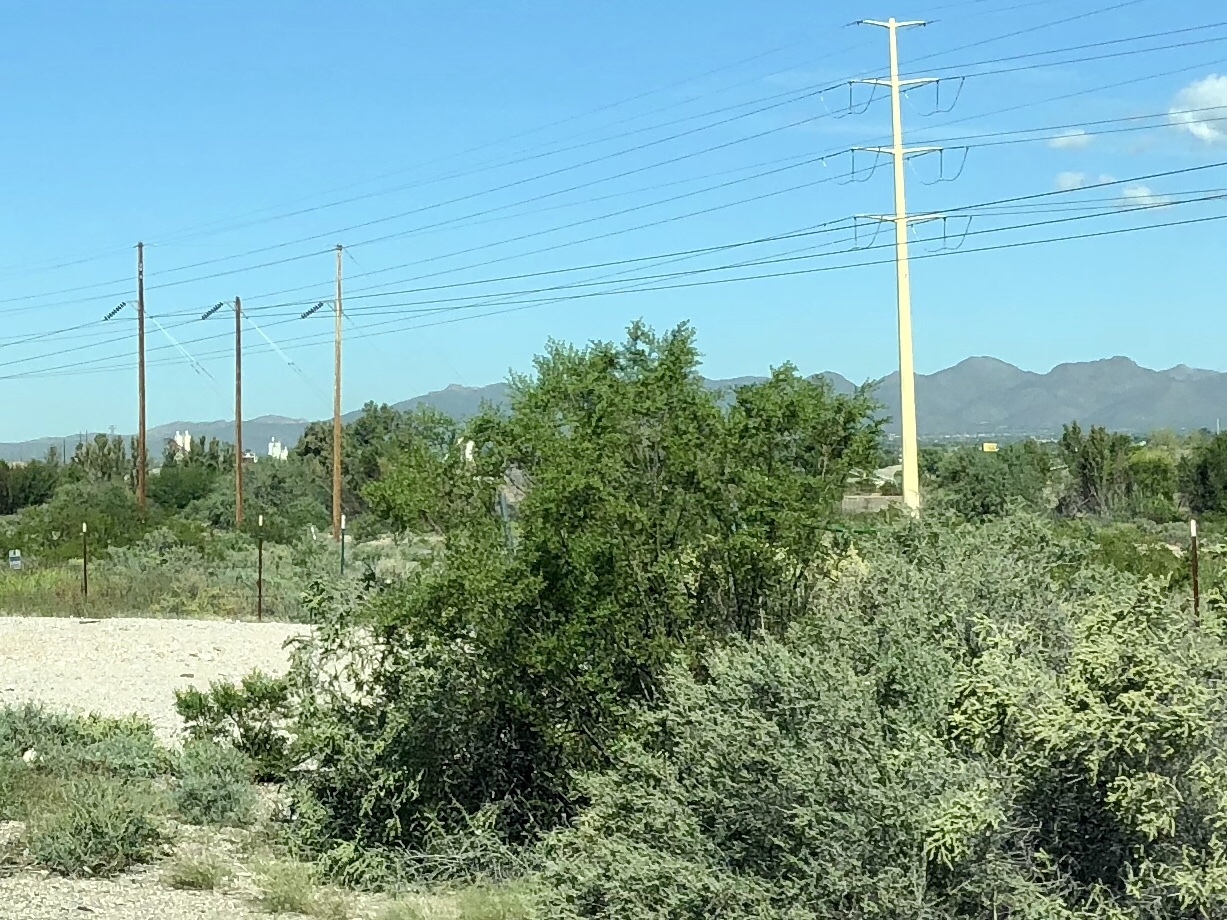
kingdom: Plantae
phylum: Tracheophyta
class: Magnoliopsida
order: Zygophyllales
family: Zygophyllaceae
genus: Larrea
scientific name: Larrea tridentata
